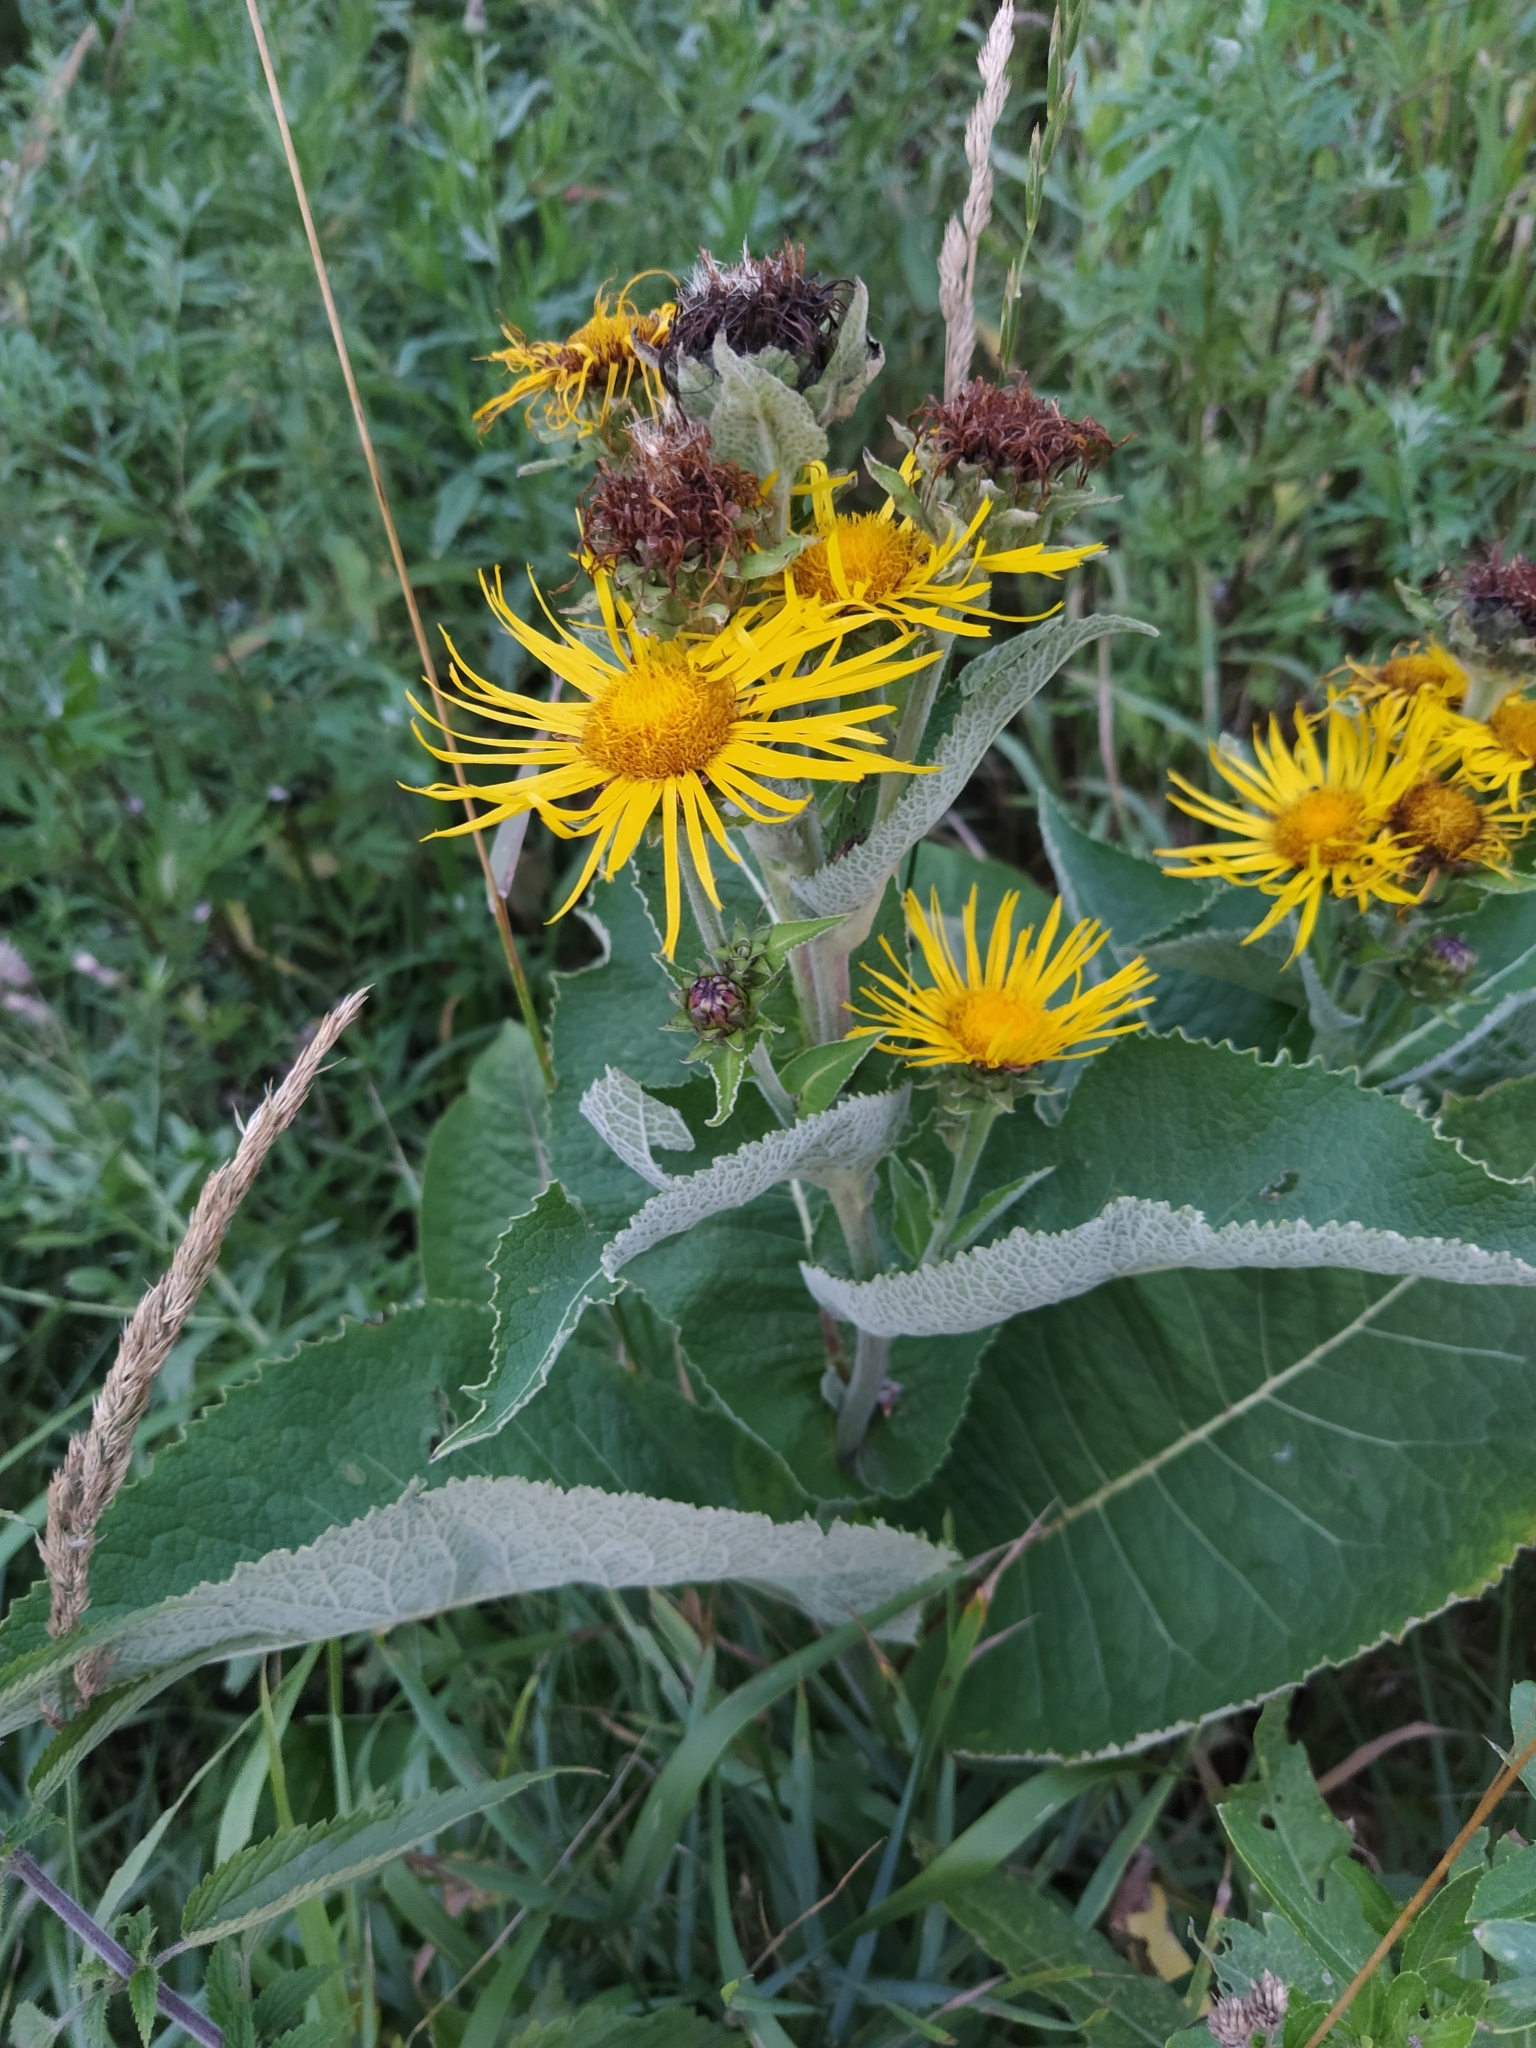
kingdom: Plantae
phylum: Tracheophyta
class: Magnoliopsida
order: Asterales
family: Asteraceae
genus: Inula
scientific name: Inula helenium
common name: Elecampane
